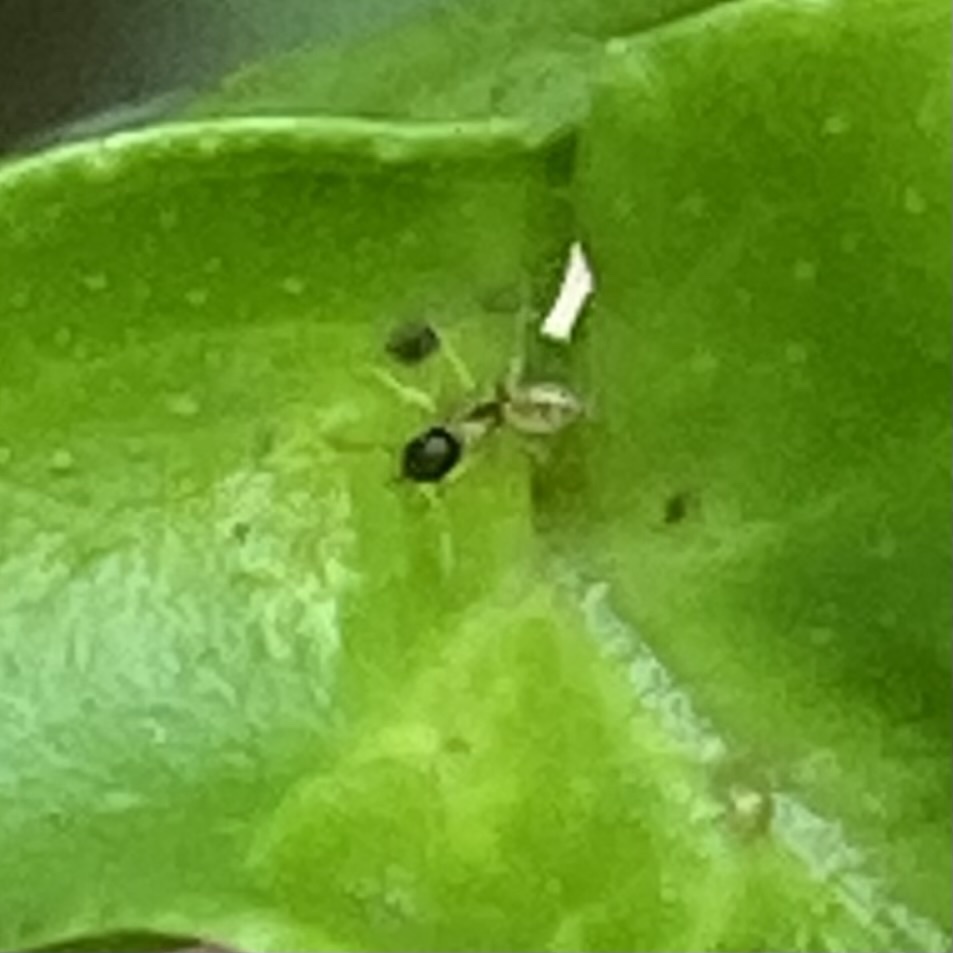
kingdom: Animalia
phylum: Arthropoda
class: Insecta
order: Hymenoptera
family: Formicidae
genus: Tapinoma
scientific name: Tapinoma melanocephalum
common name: Ghost ant
